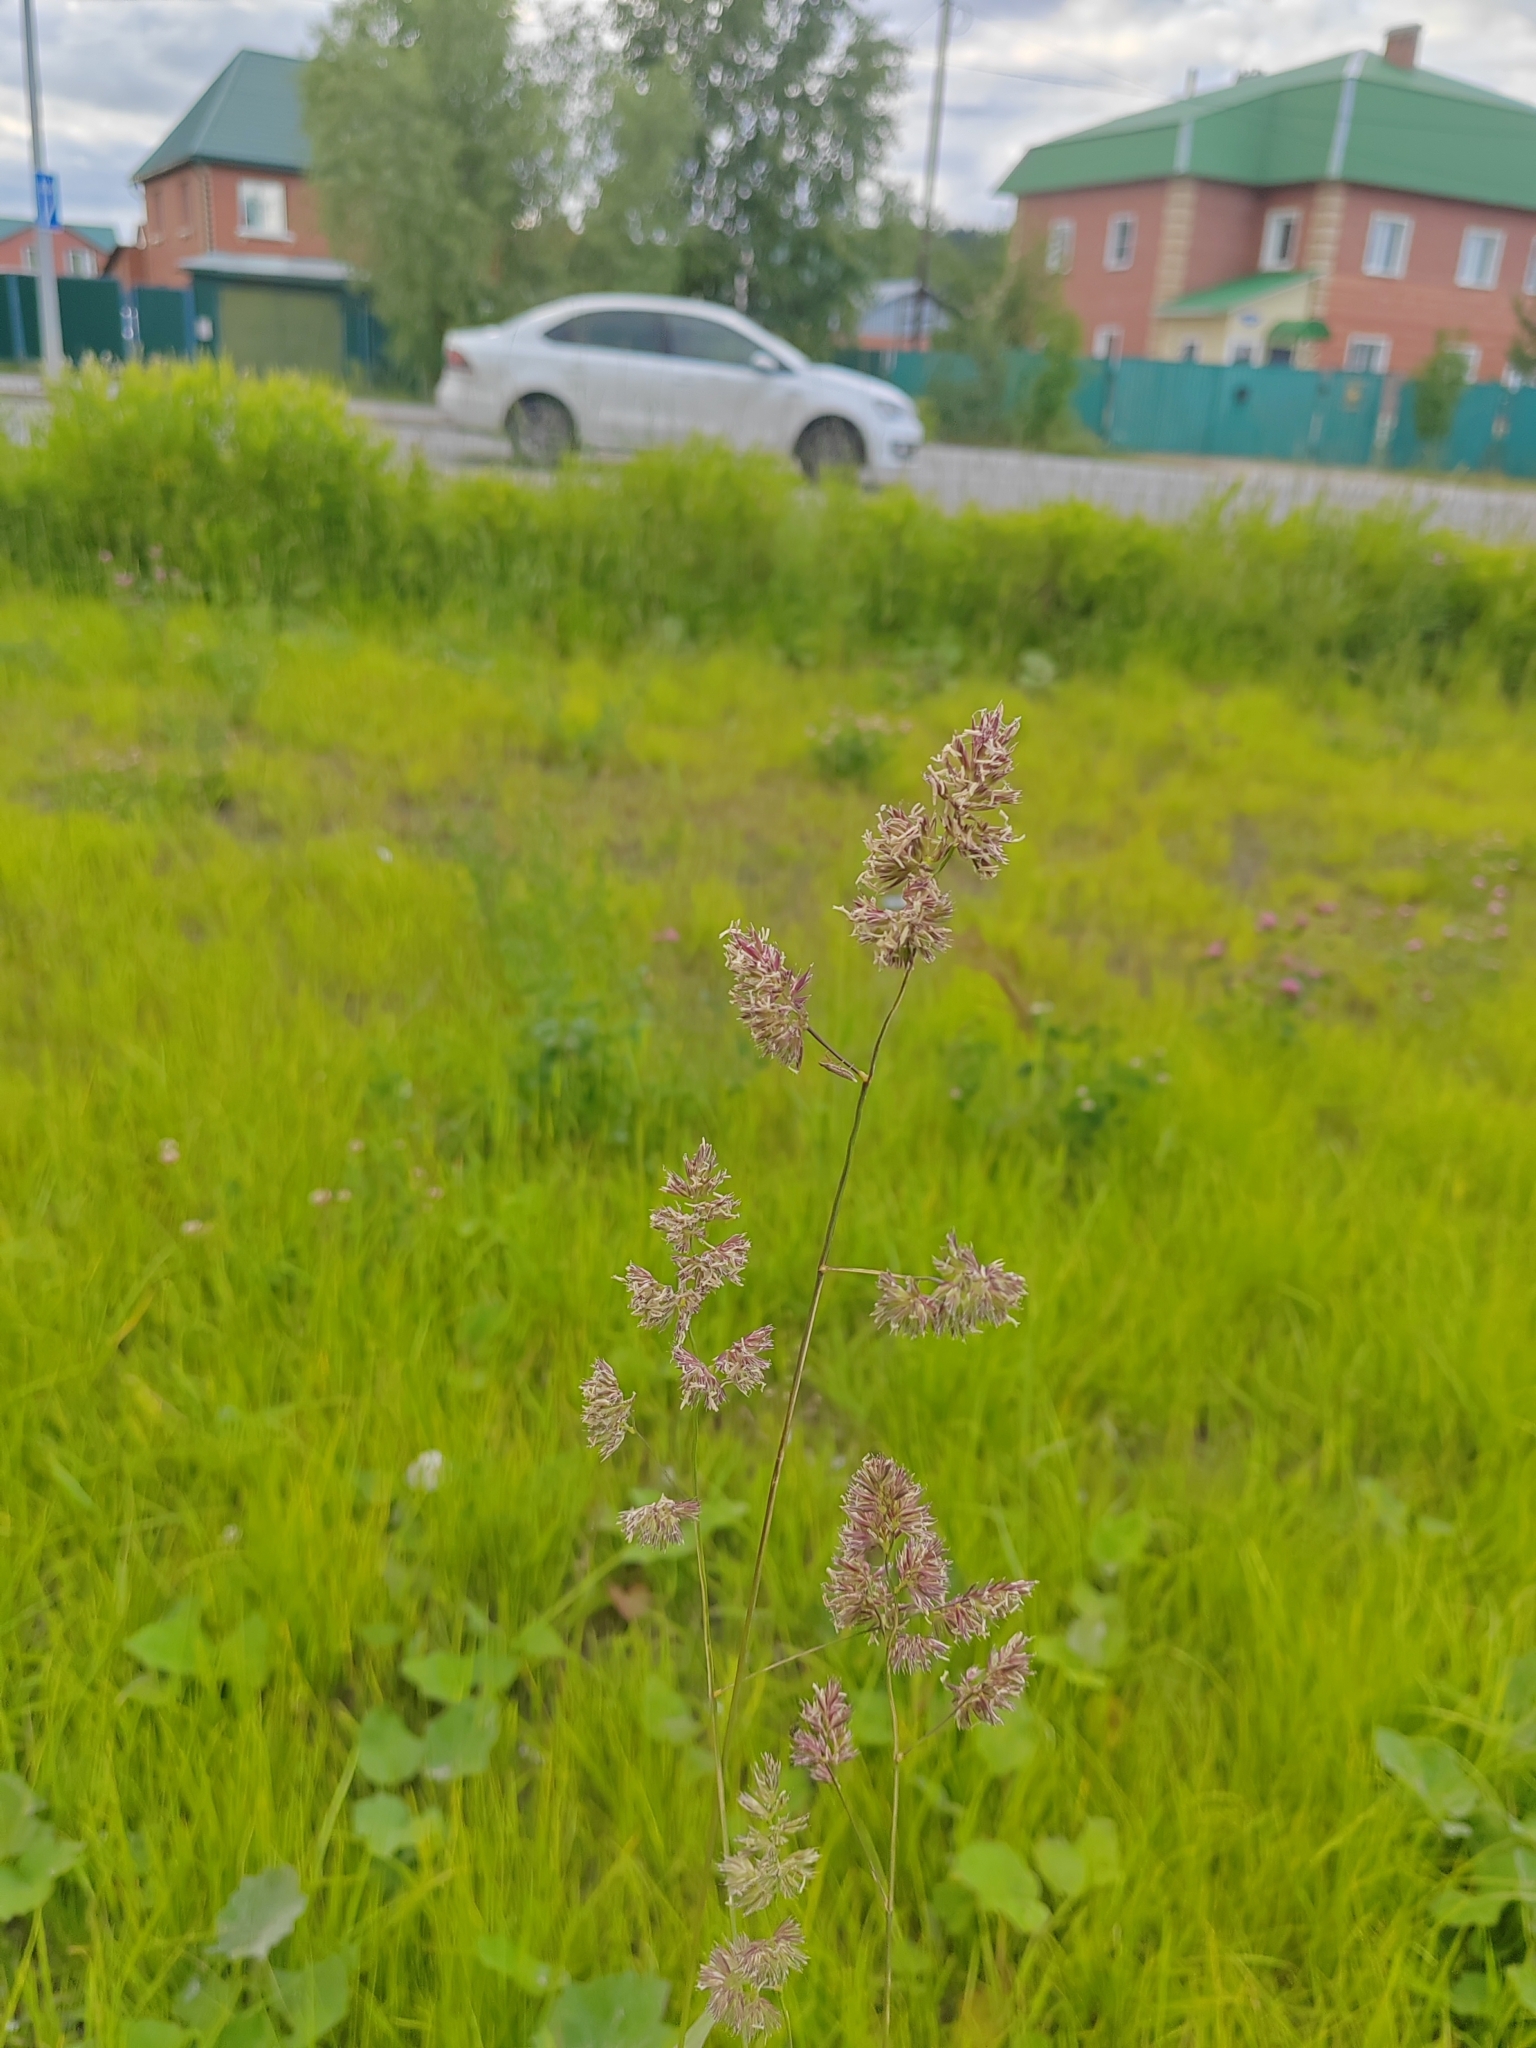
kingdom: Plantae
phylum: Tracheophyta
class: Liliopsida
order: Poales
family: Poaceae
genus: Dactylis
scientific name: Dactylis glomerata
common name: Orchardgrass
